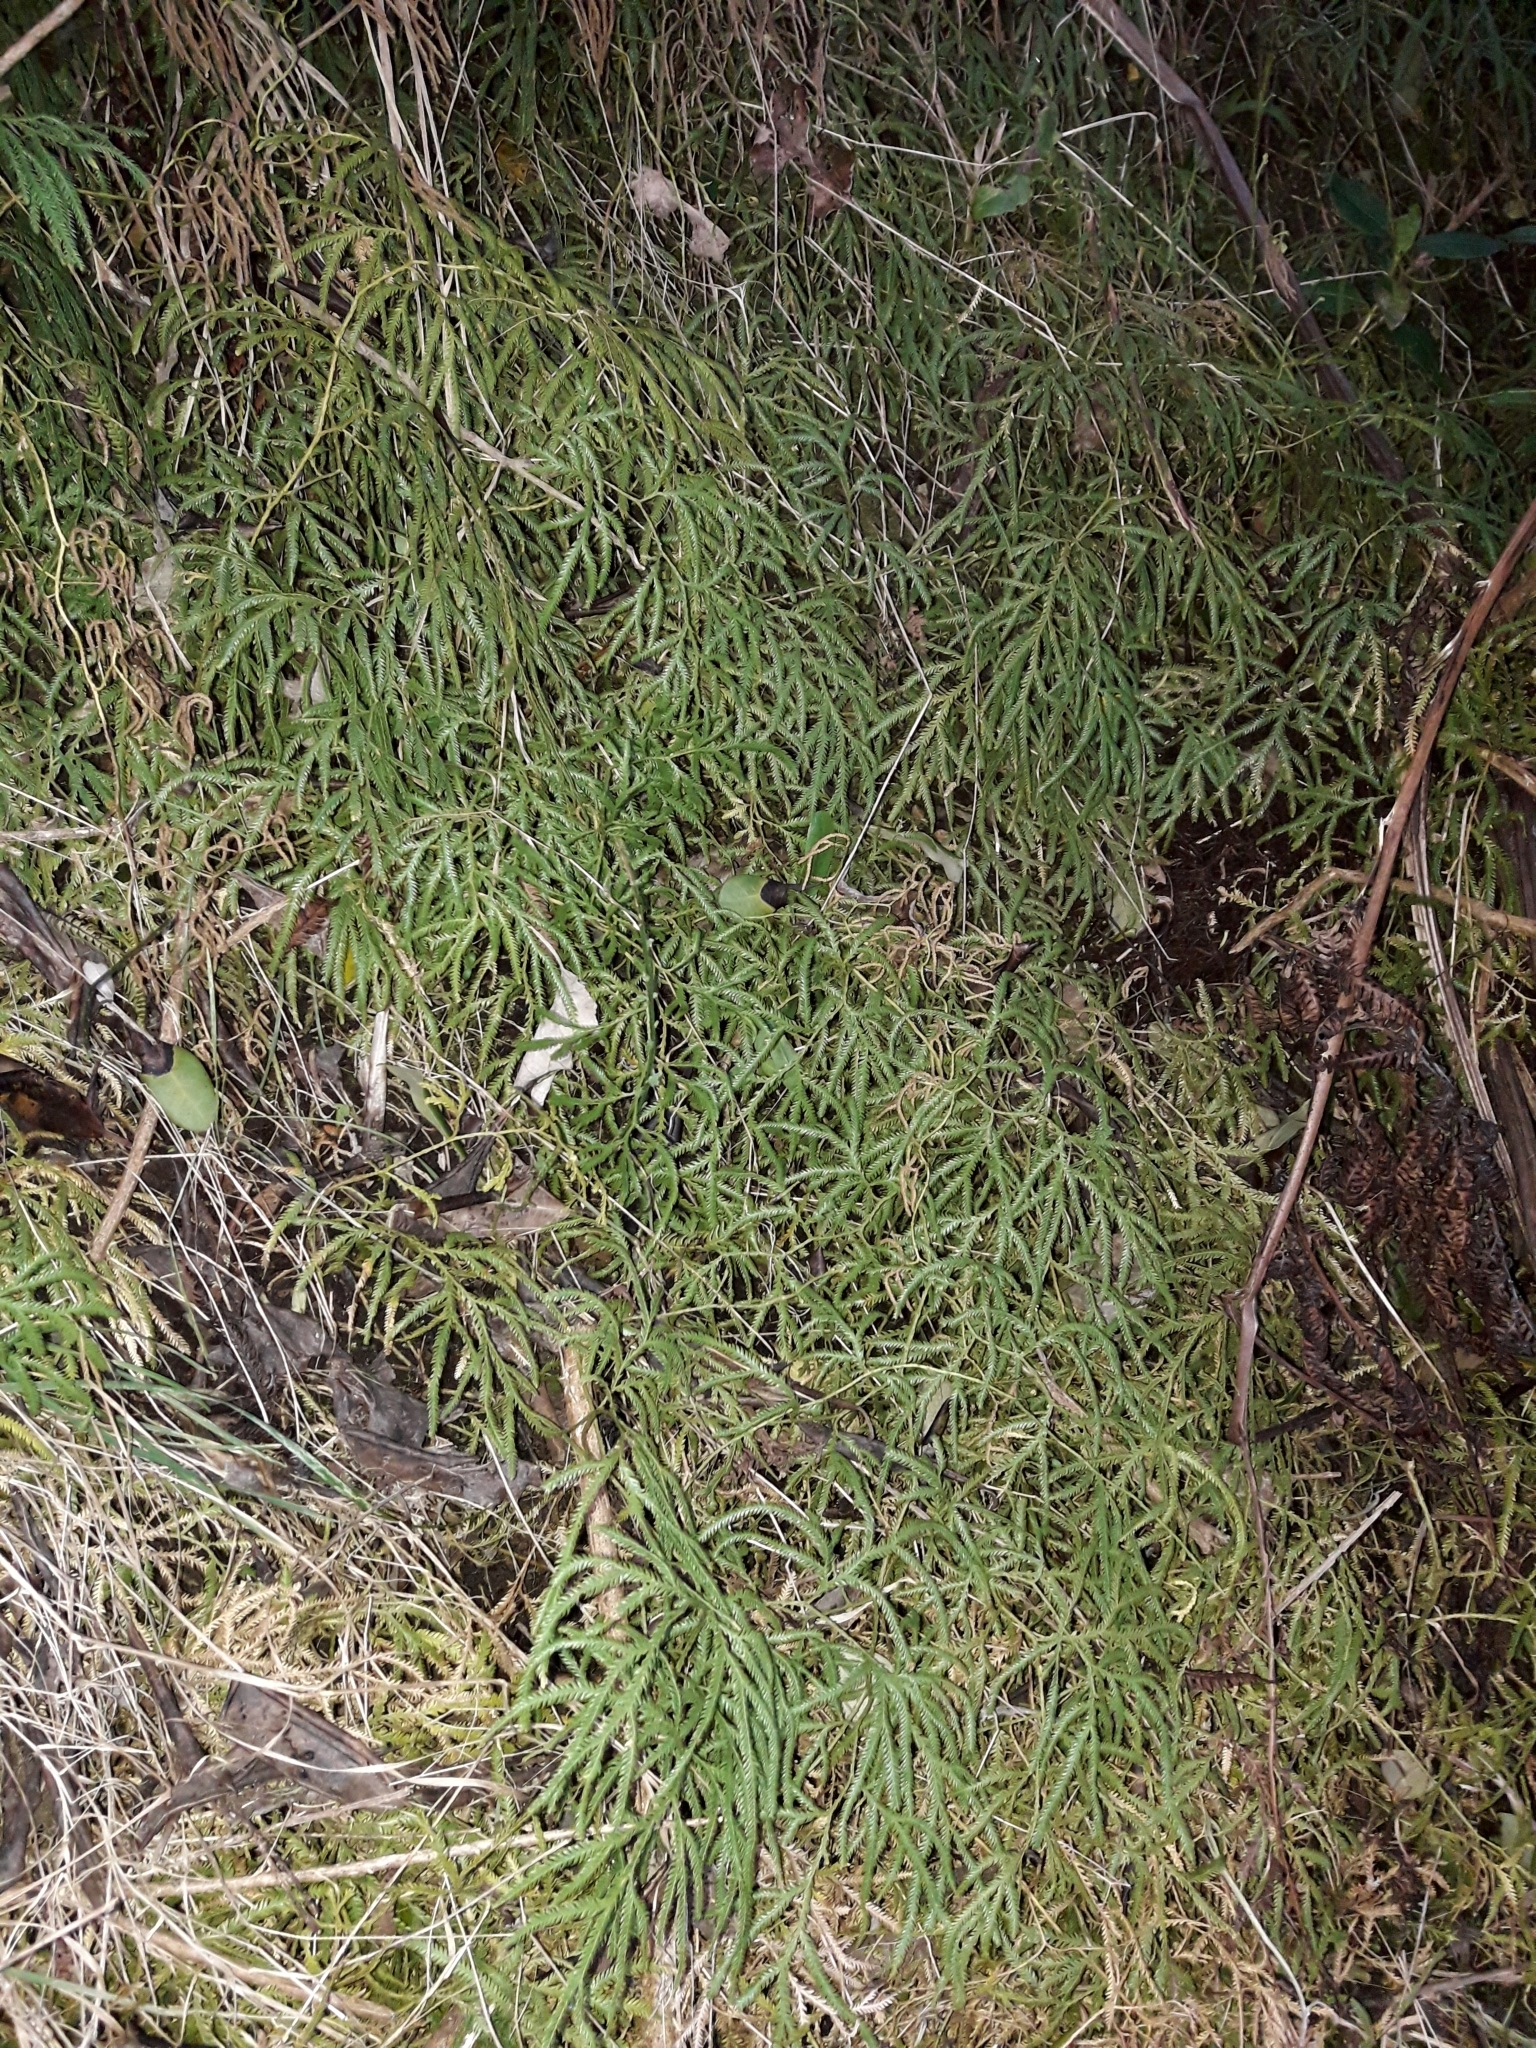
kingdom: Plantae
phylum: Tracheophyta
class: Lycopodiopsida
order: Lycopodiales
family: Lycopodiaceae
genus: Lycopodium
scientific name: Lycopodium volubile
